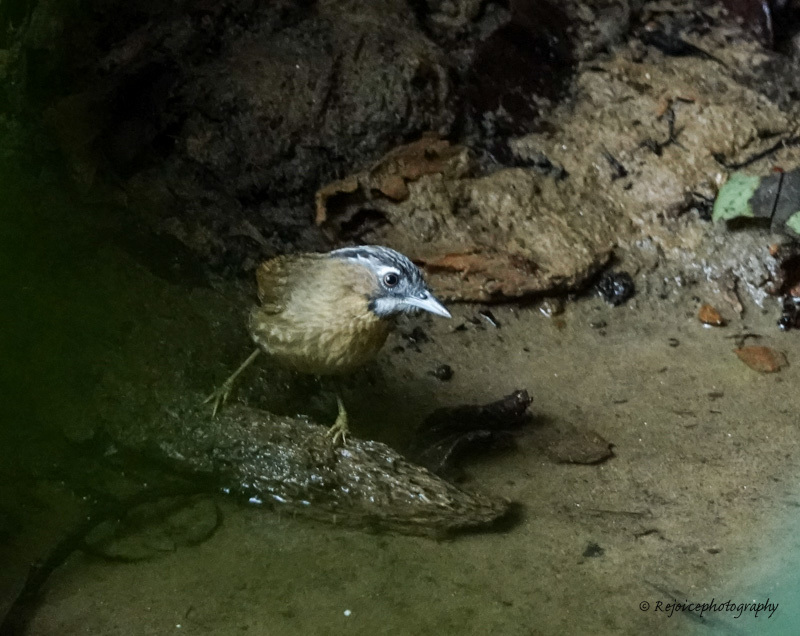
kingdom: Animalia
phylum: Chordata
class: Aves
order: Passeriformes
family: Pellorneidae
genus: Pellorneum
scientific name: Pellorneum ruficeps
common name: Puff-throated babbler
